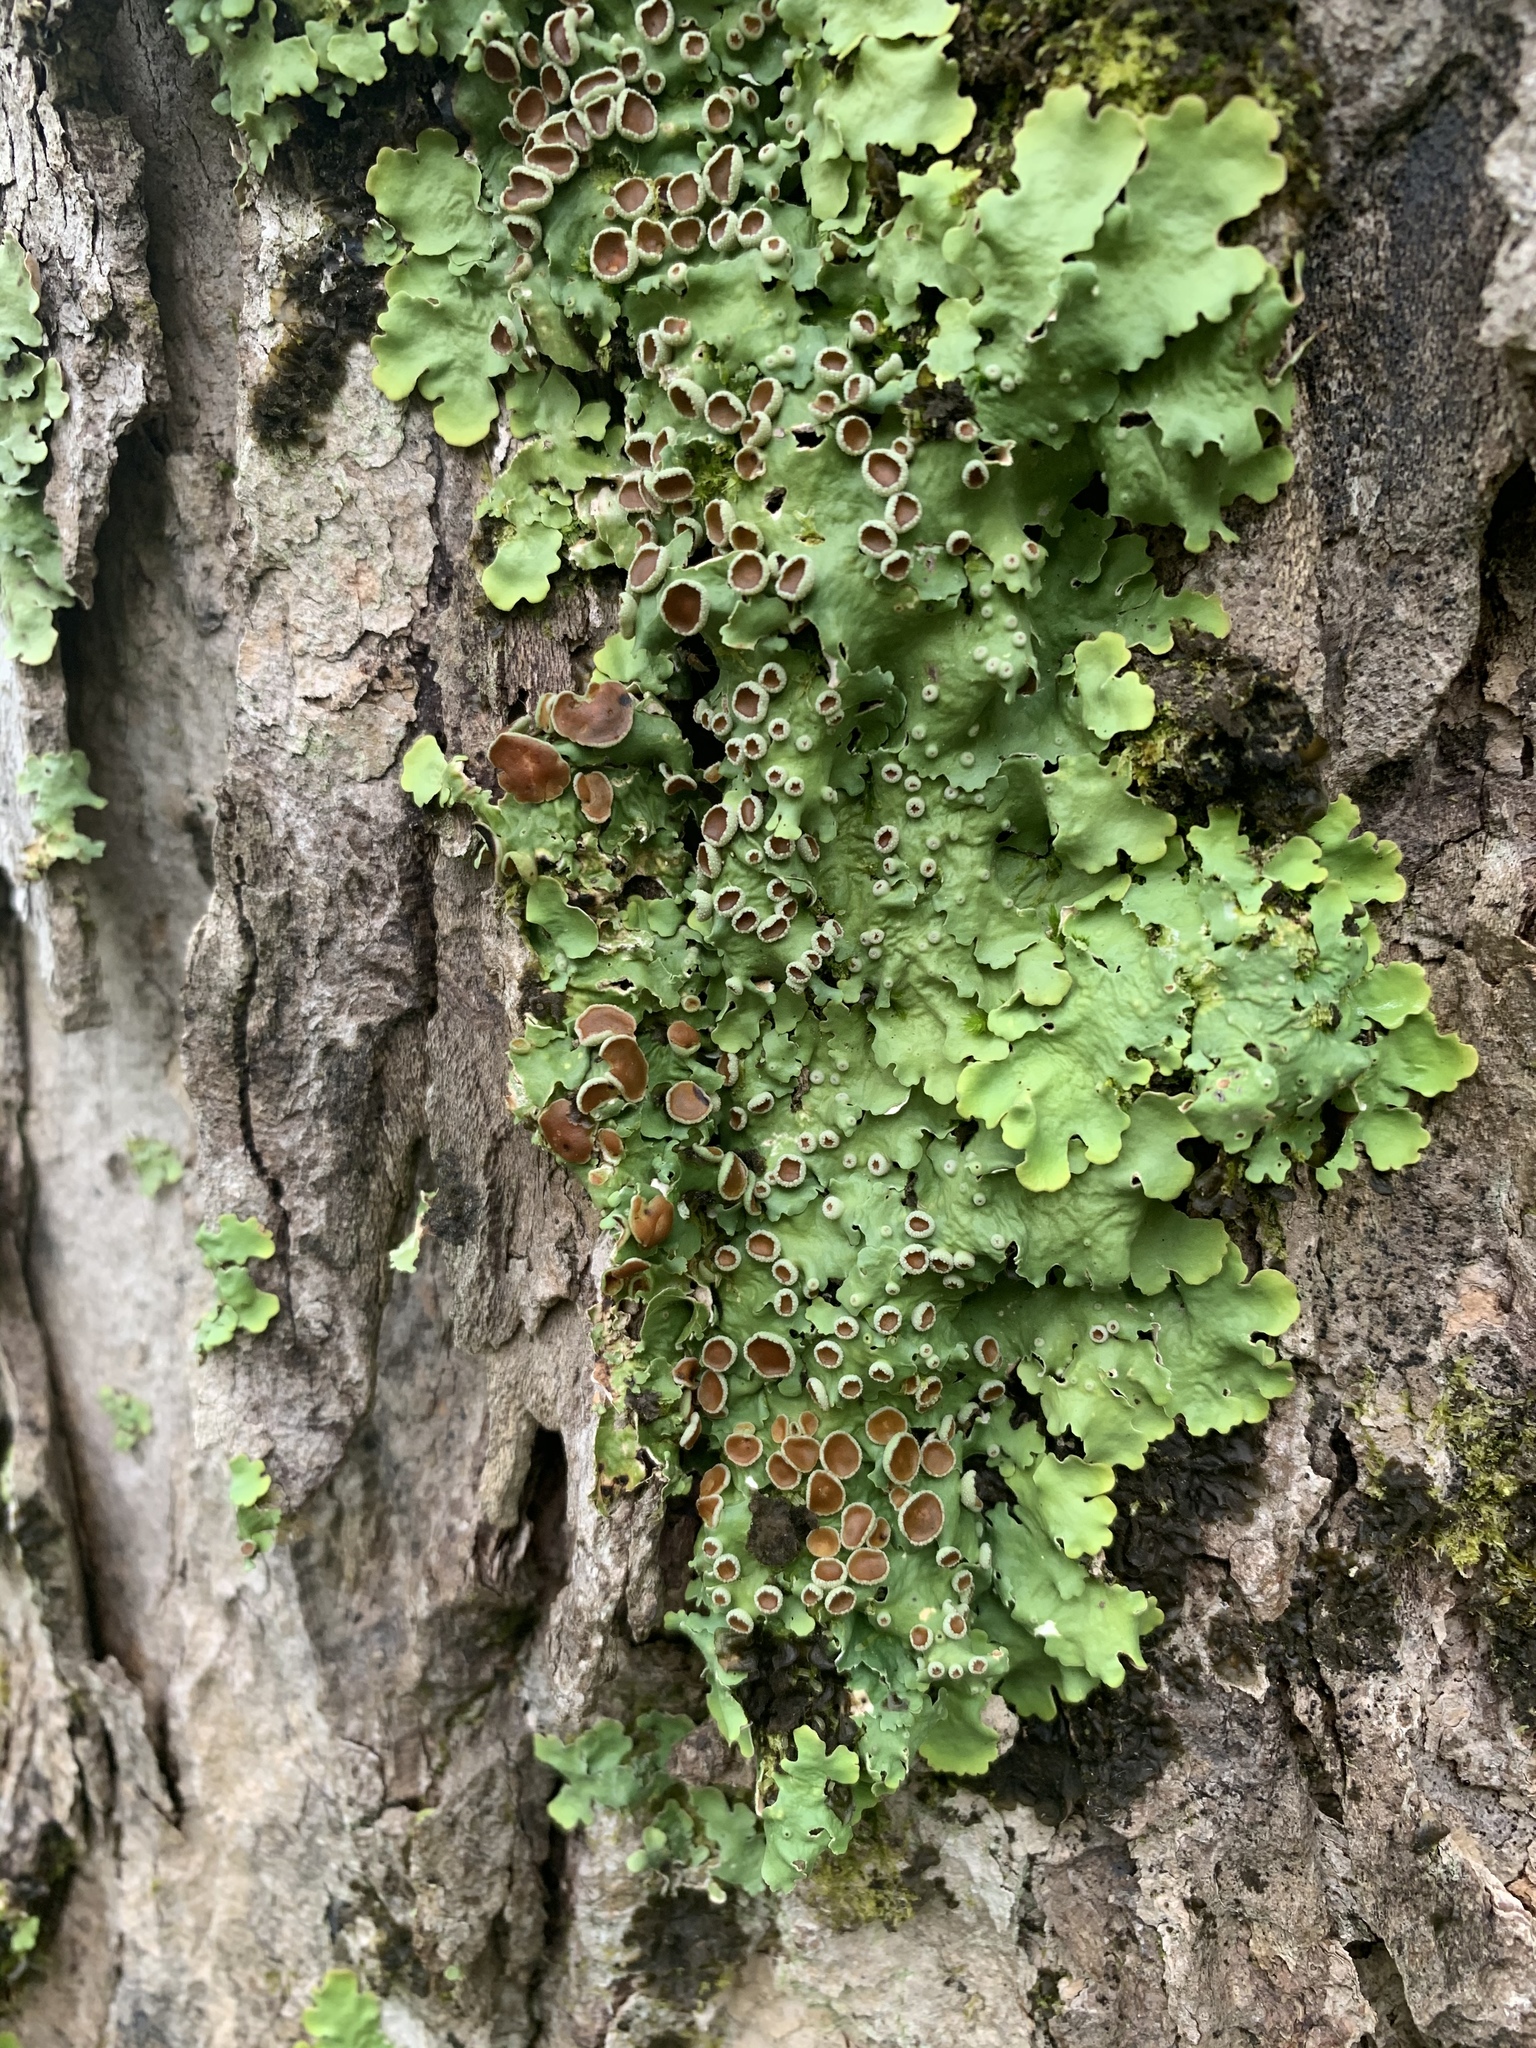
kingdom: Fungi
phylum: Ascomycota
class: Lecanoromycetes
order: Peltigerales
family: Lobariaceae
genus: Ricasolia
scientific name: Ricasolia quercizans
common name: Smooth lungwort
